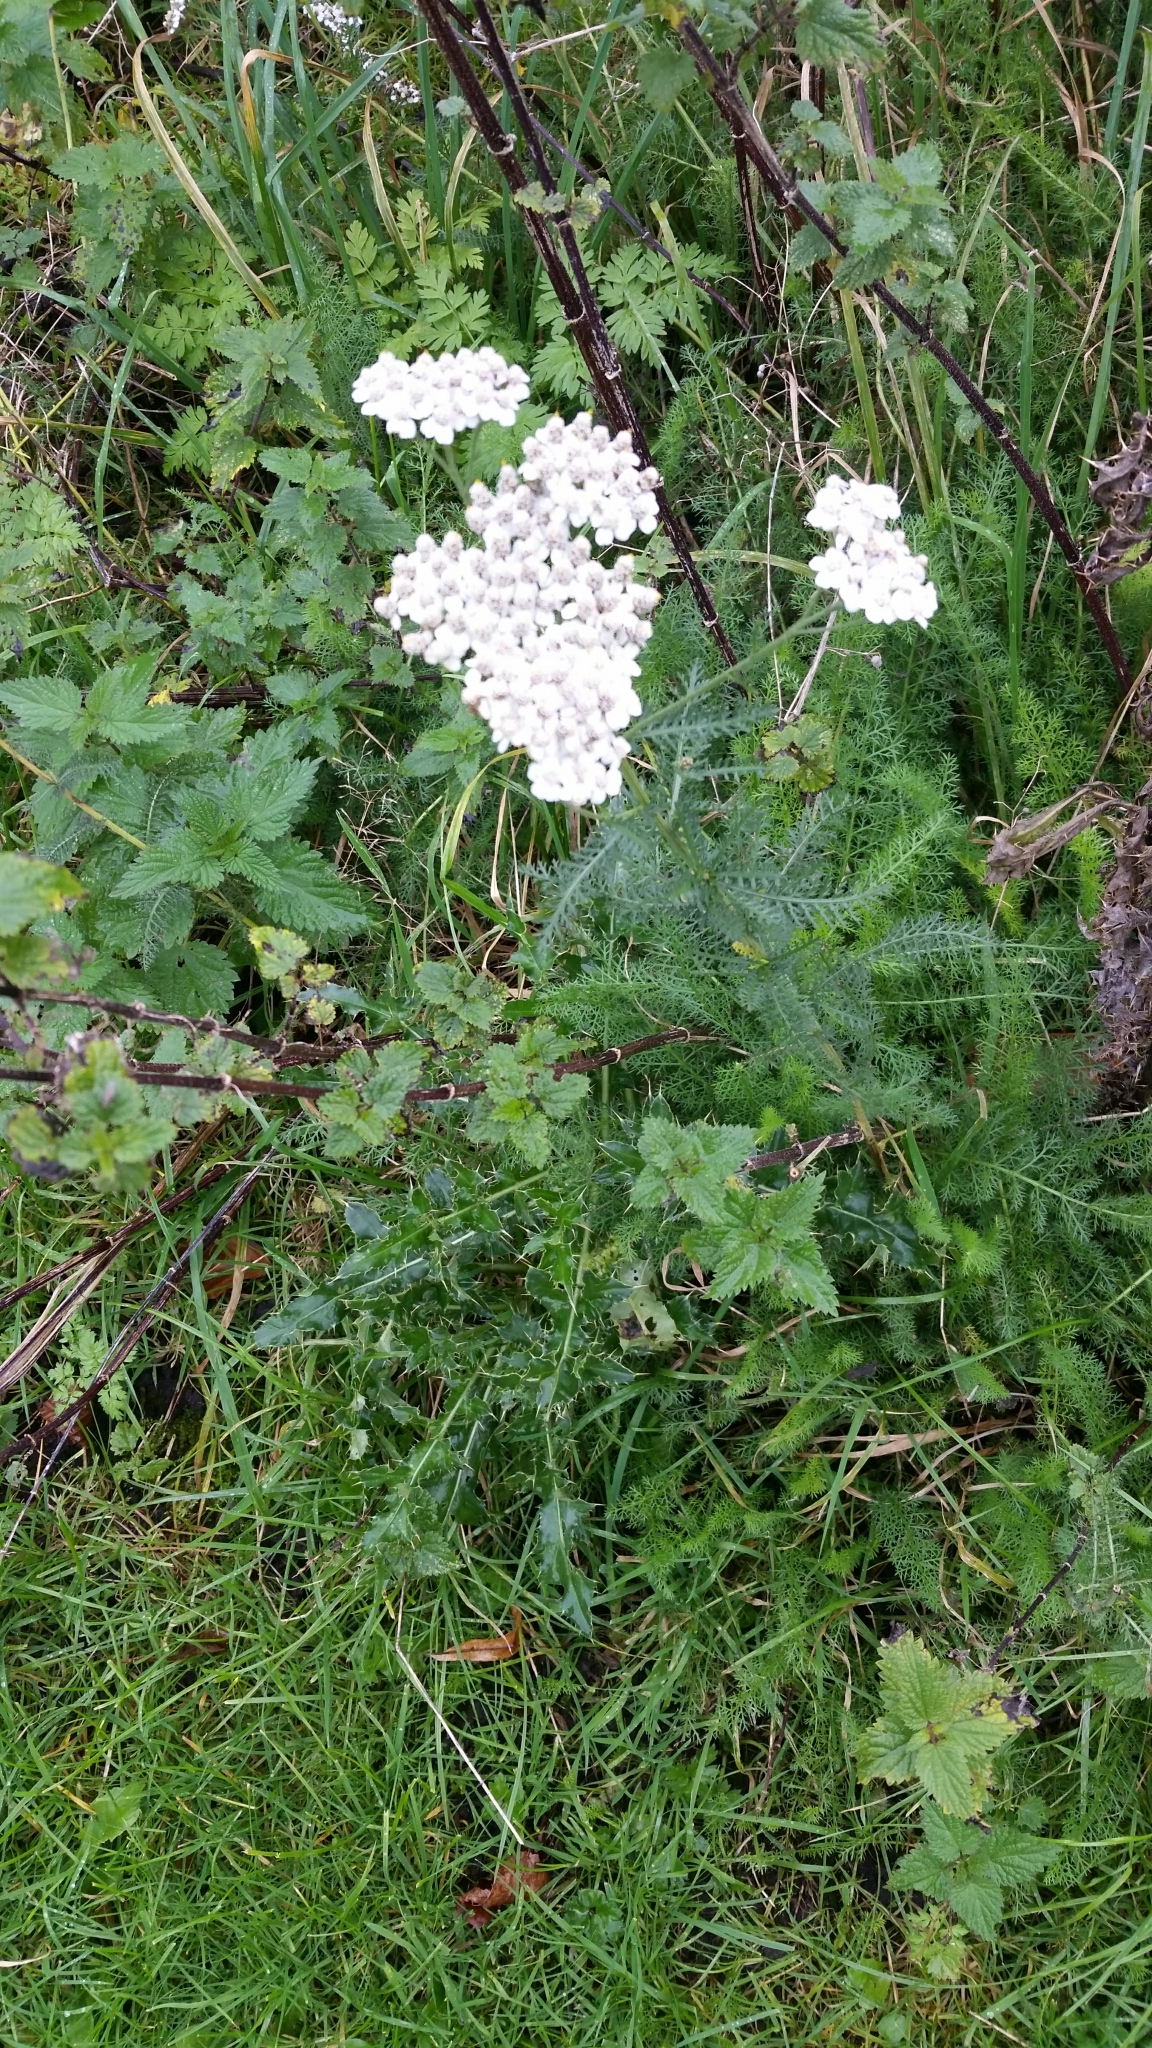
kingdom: Plantae
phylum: Tracheophyta
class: Magnoliopsida
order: Asterales
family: Asteraceae
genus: Achillea
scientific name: Achillea millefolium
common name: Yarrow
